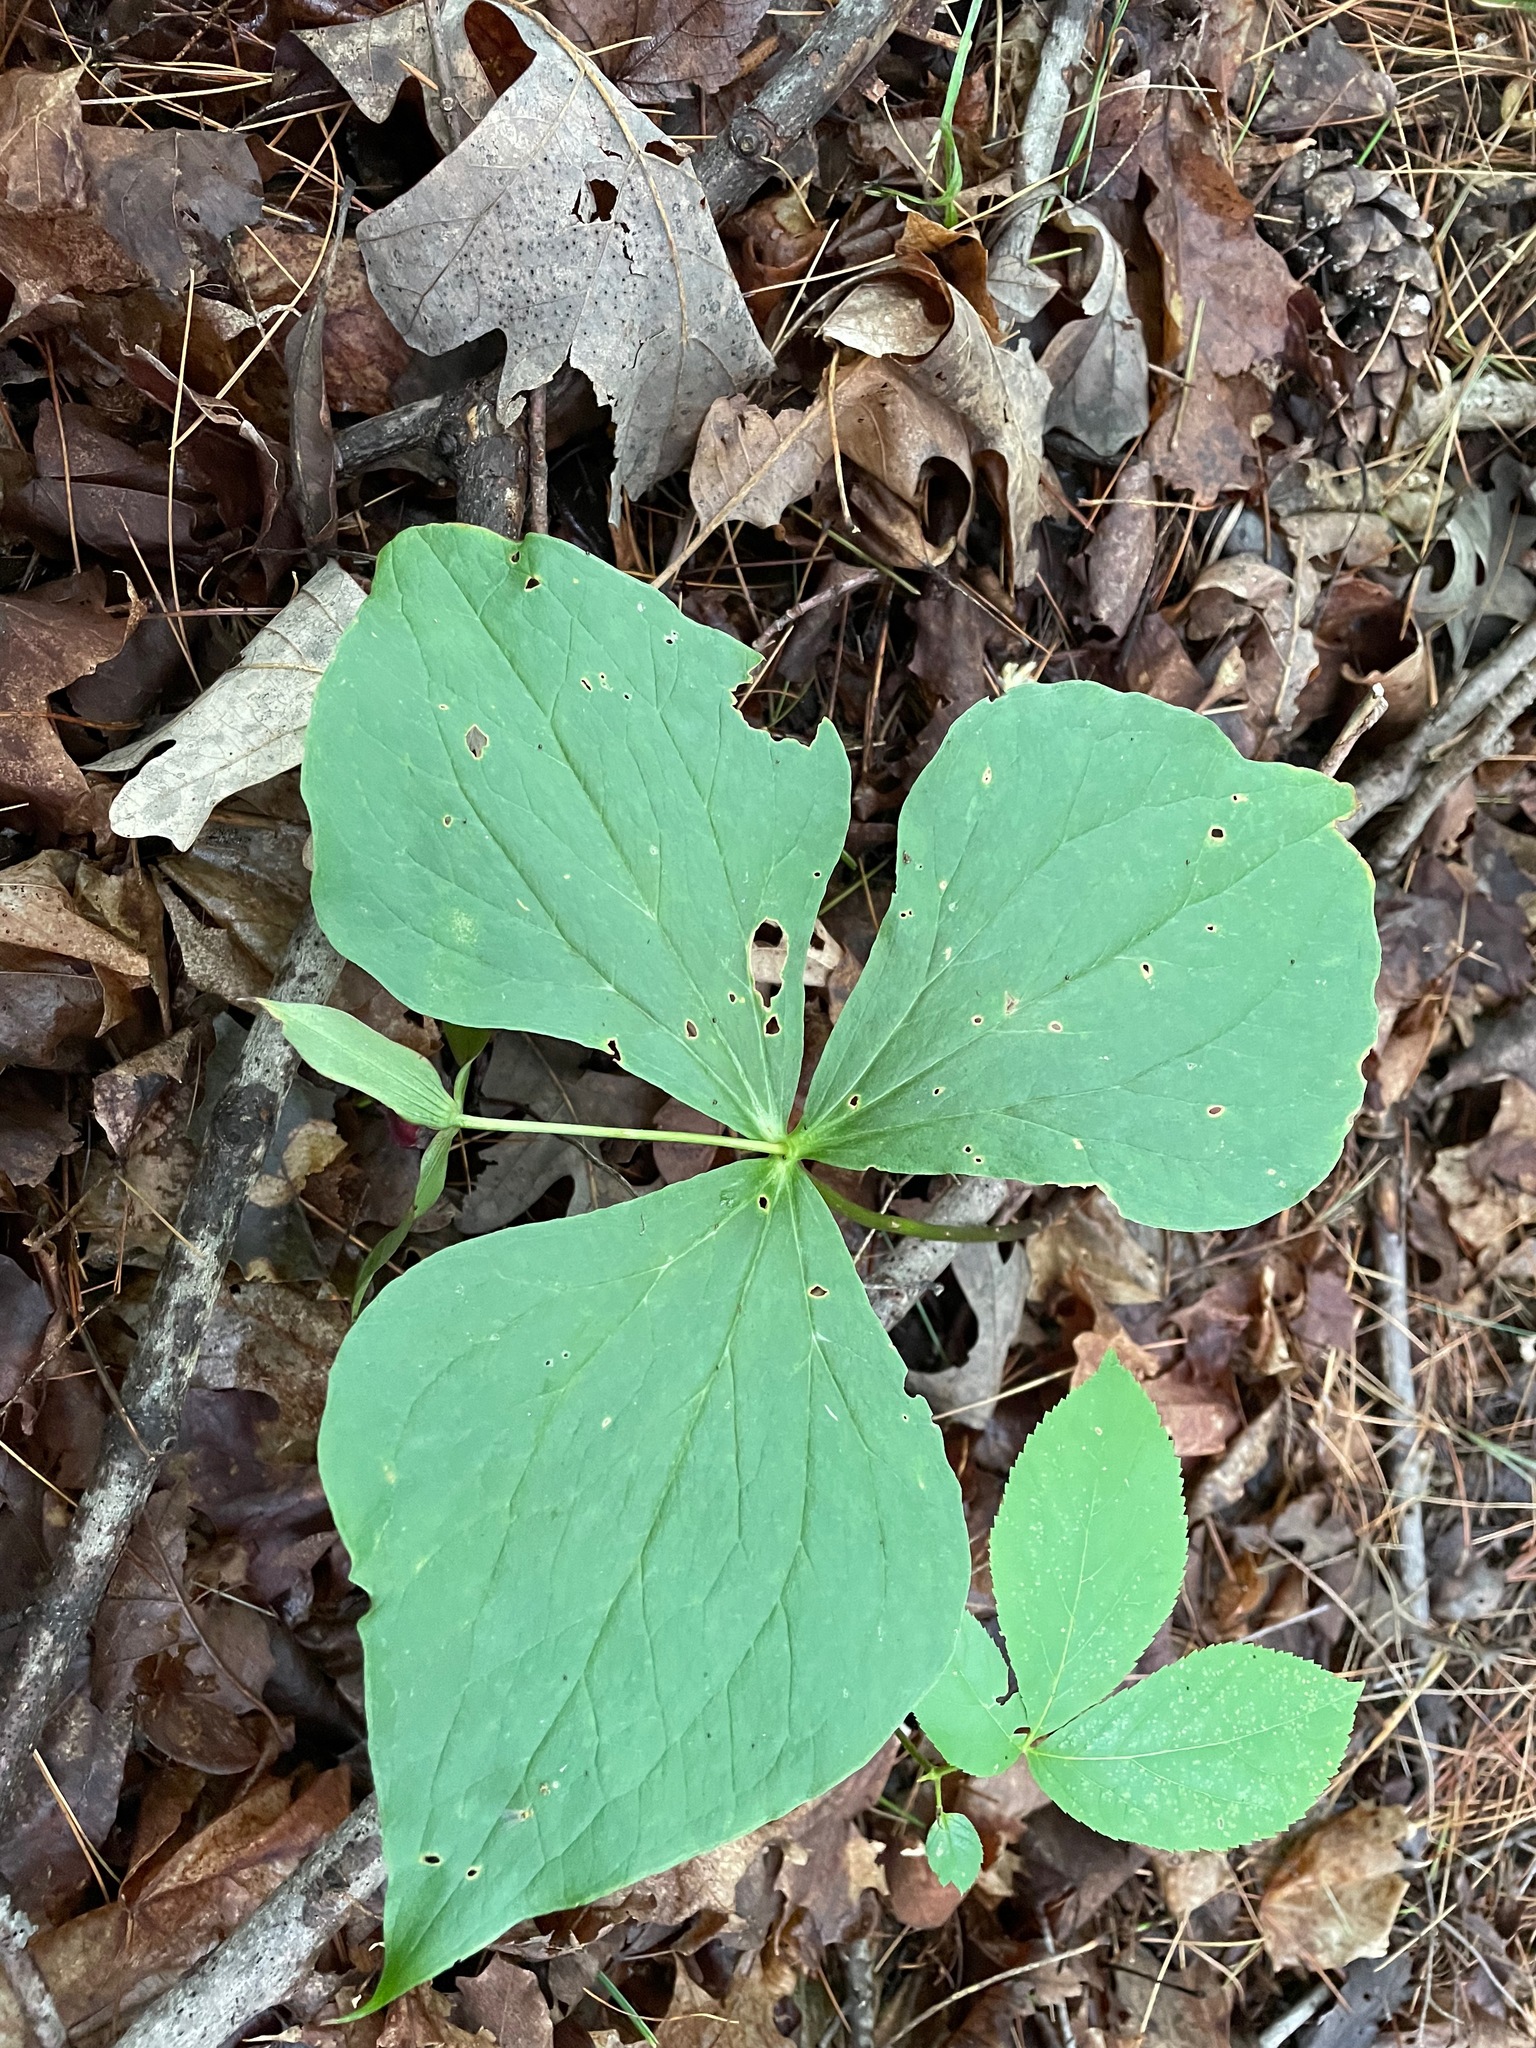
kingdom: Plantae
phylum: Tracheophyta
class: Liliopsida
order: Liliales
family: Melanthiaceae
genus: Trillium
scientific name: Trillium erectum
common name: Purple trillium
